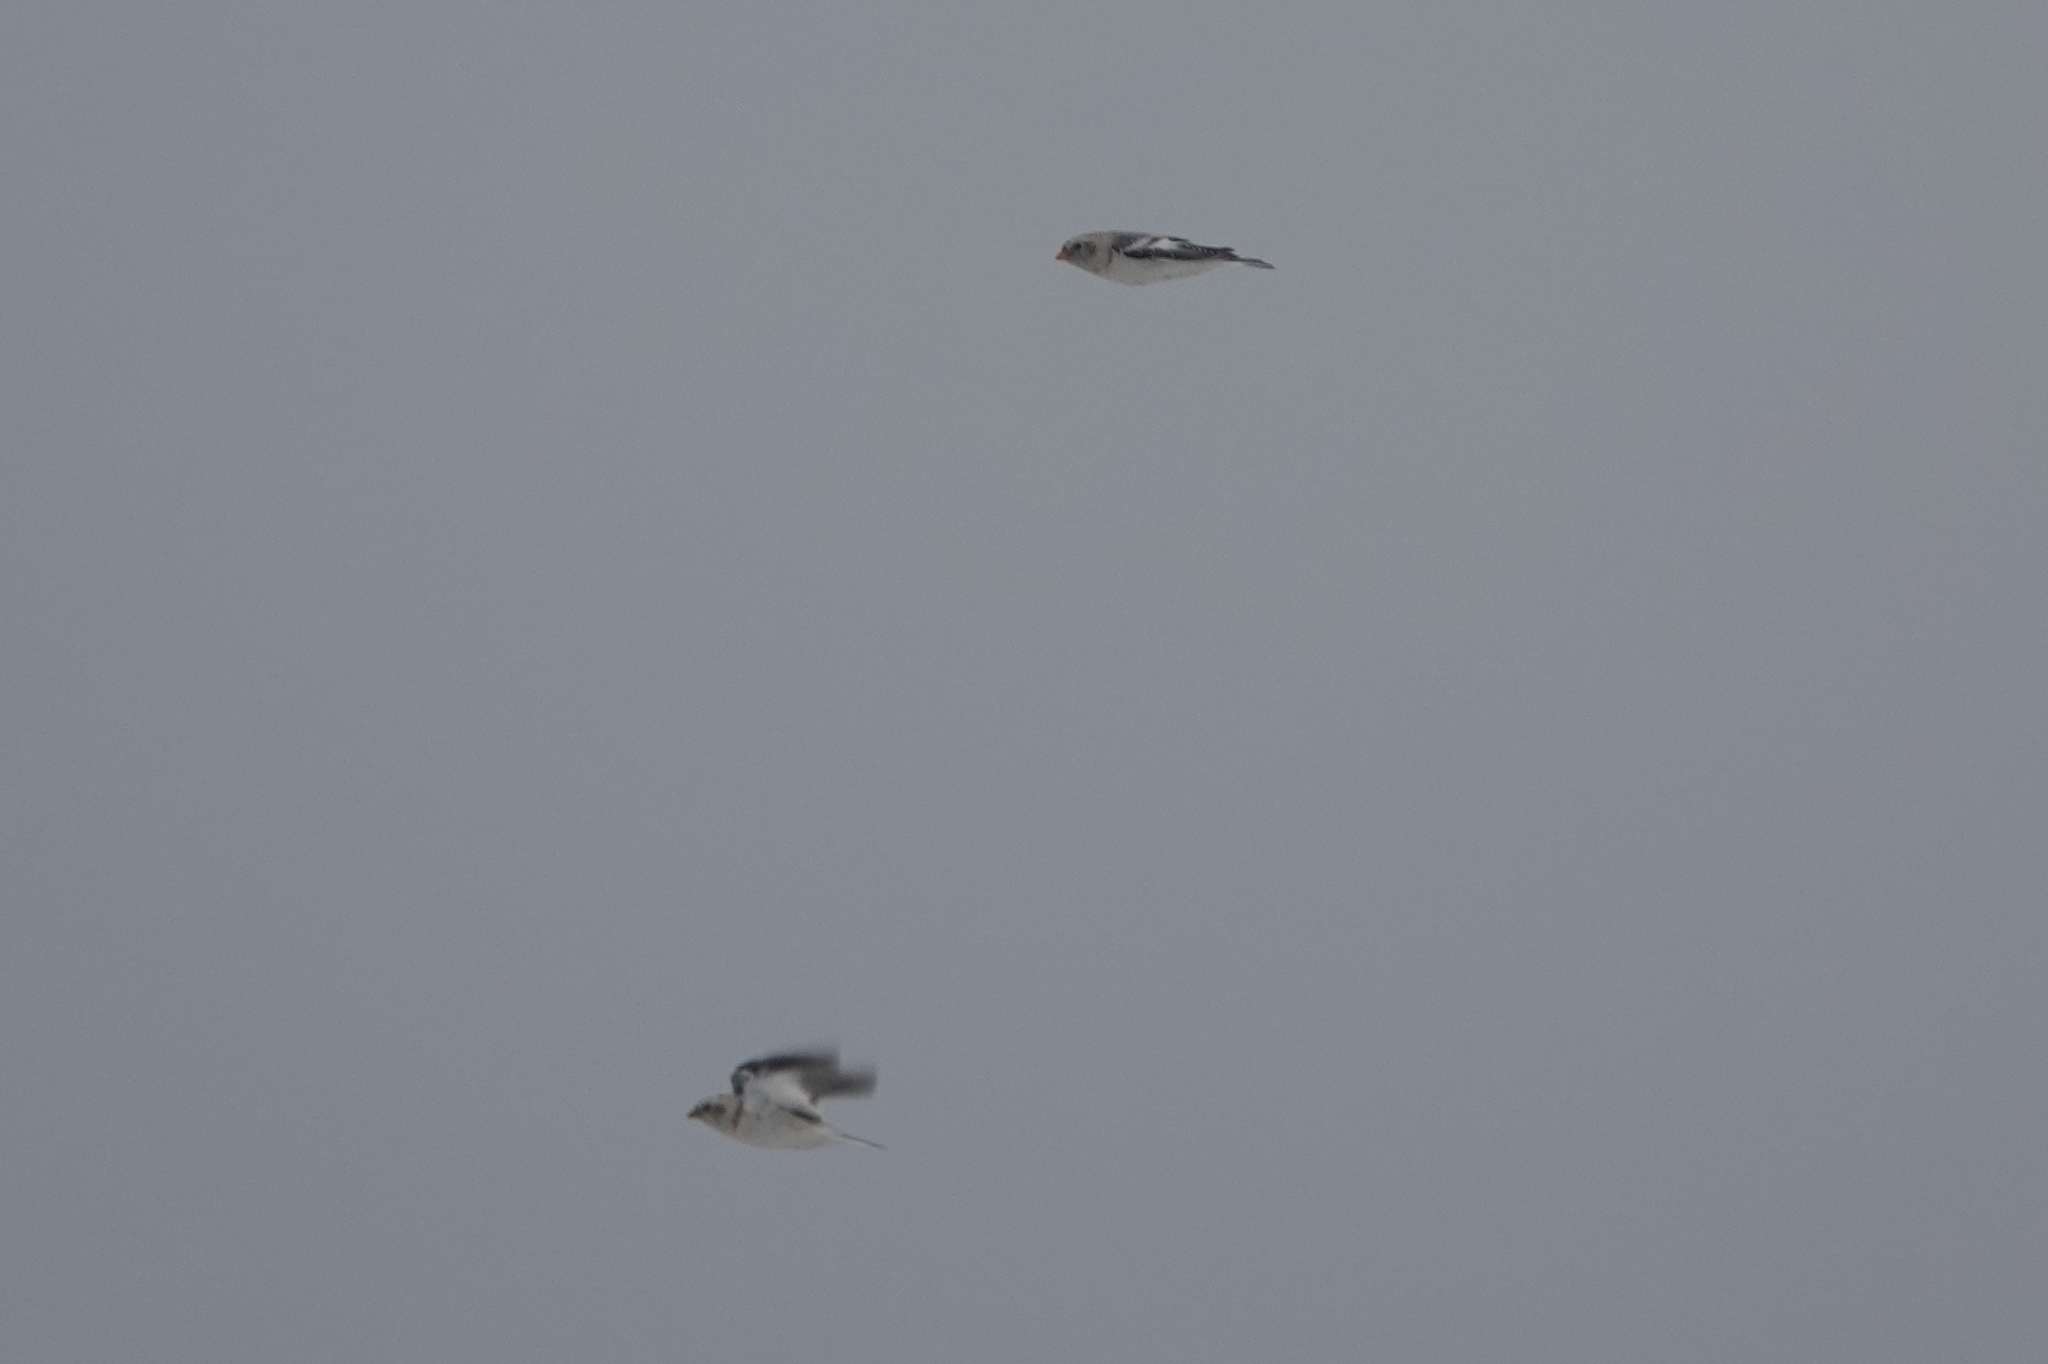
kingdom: Animalia
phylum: Chordata
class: Aves
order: Passeriformes
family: Calcariidae
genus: Plectrophenax
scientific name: Plectrophenax nivalis
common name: Snow bunting
